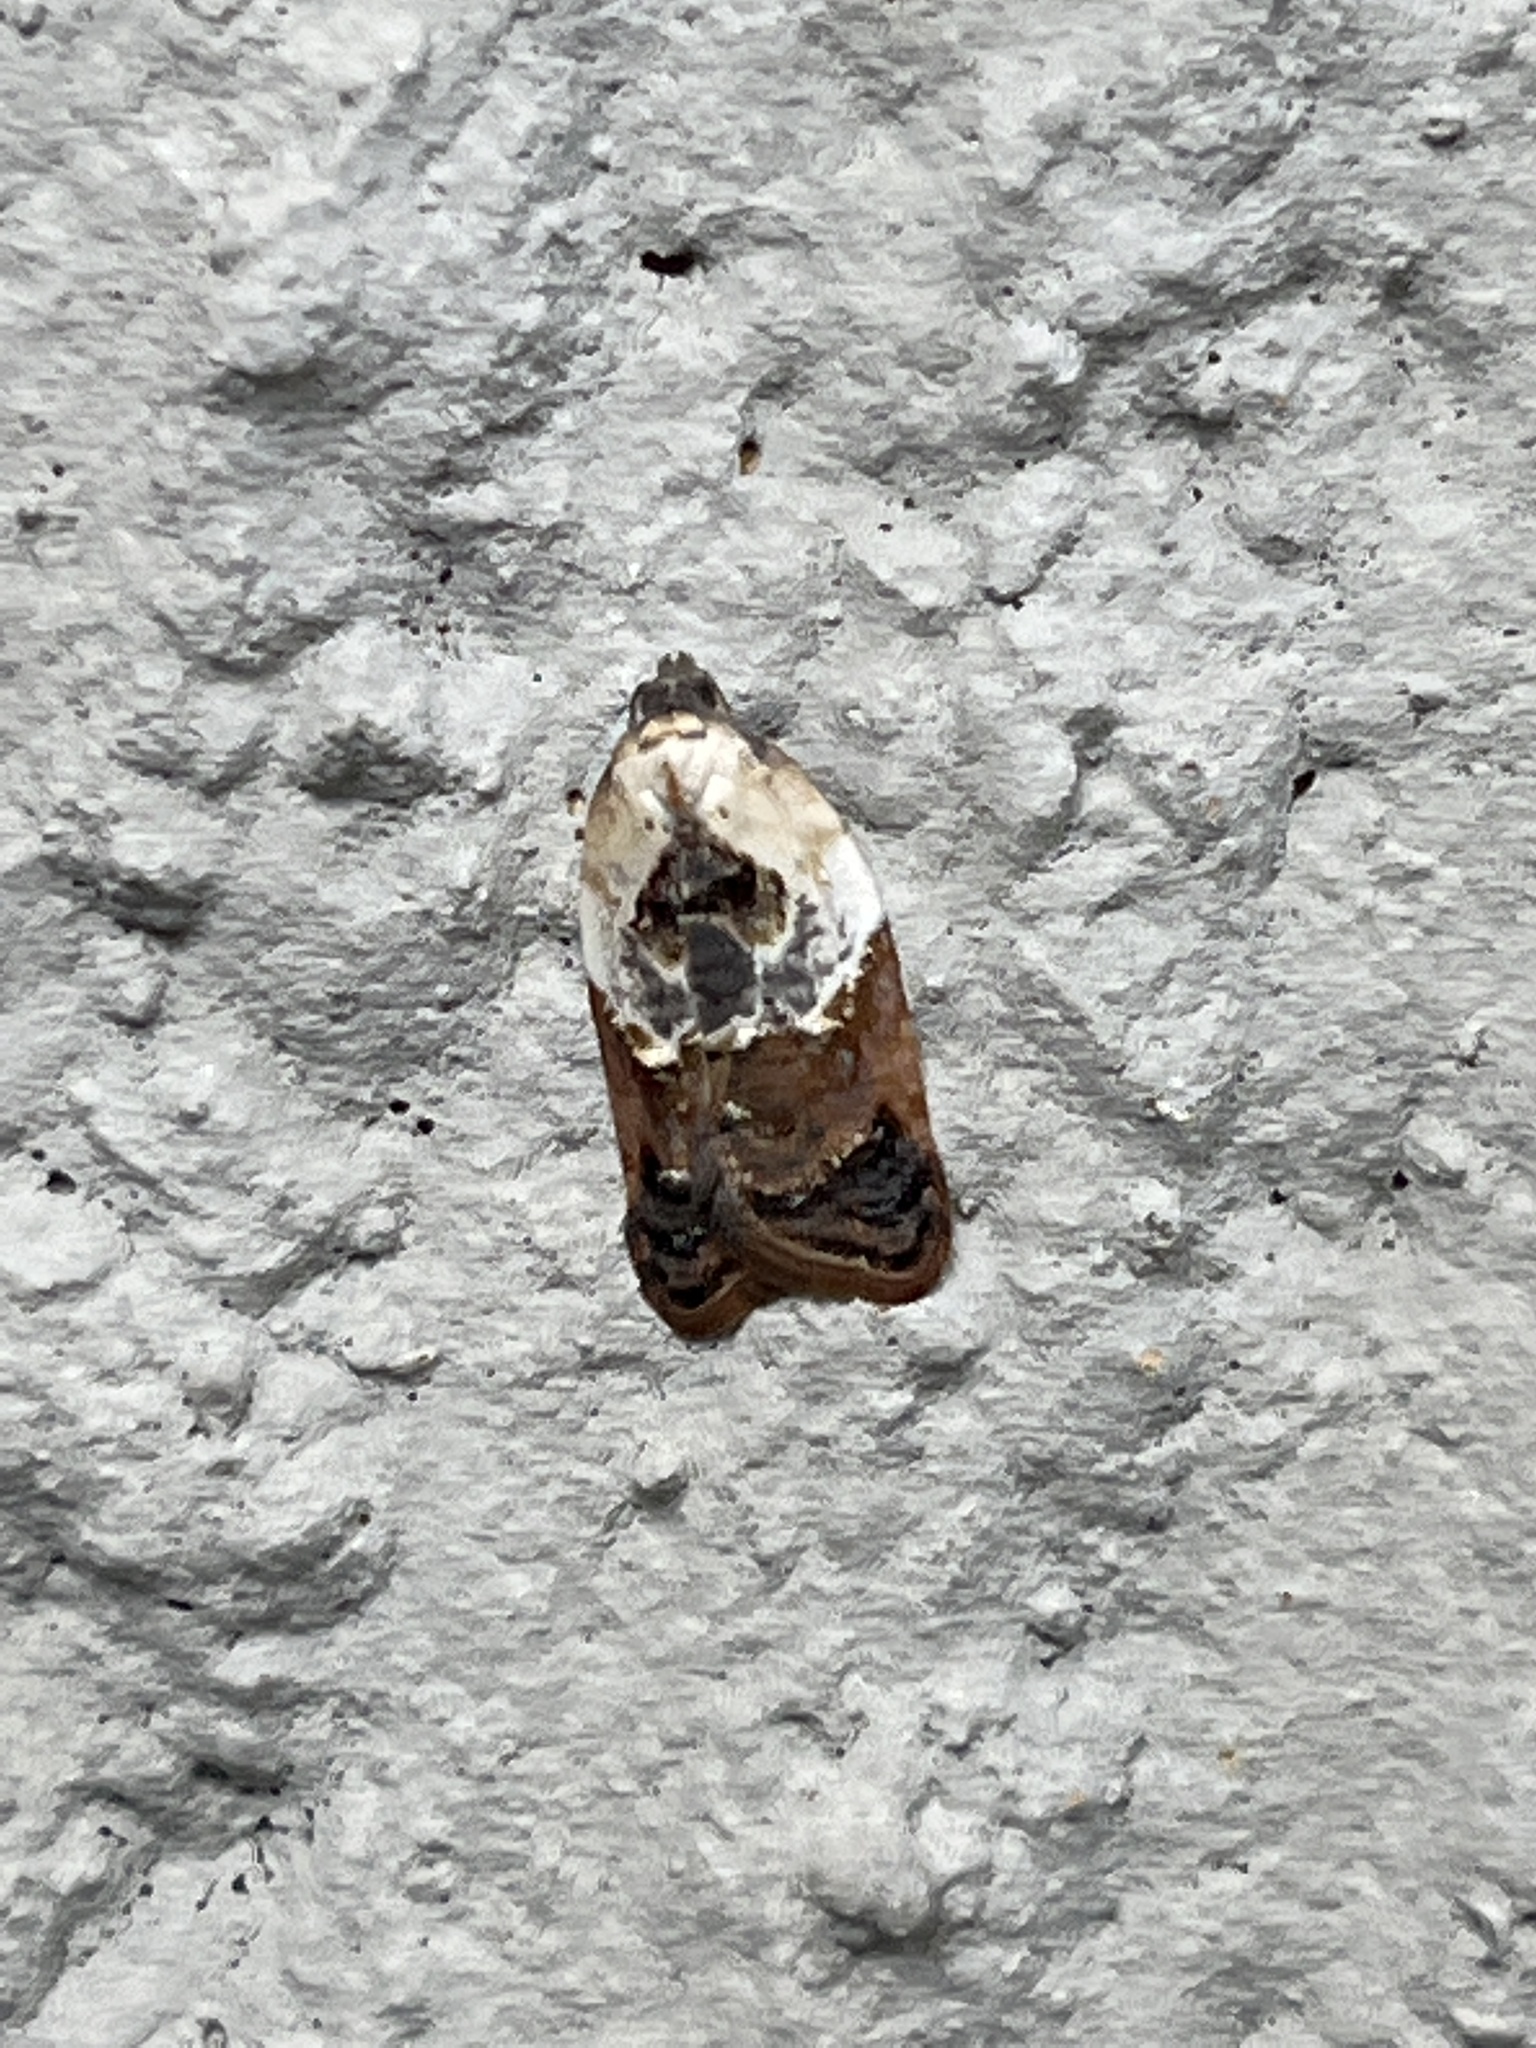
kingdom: Animalia
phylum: Arthropoda
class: Insecta
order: Lepidoptera
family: Tortricidae
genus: Acleris
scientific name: Acleris variegana
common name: Garden rose tortrix
